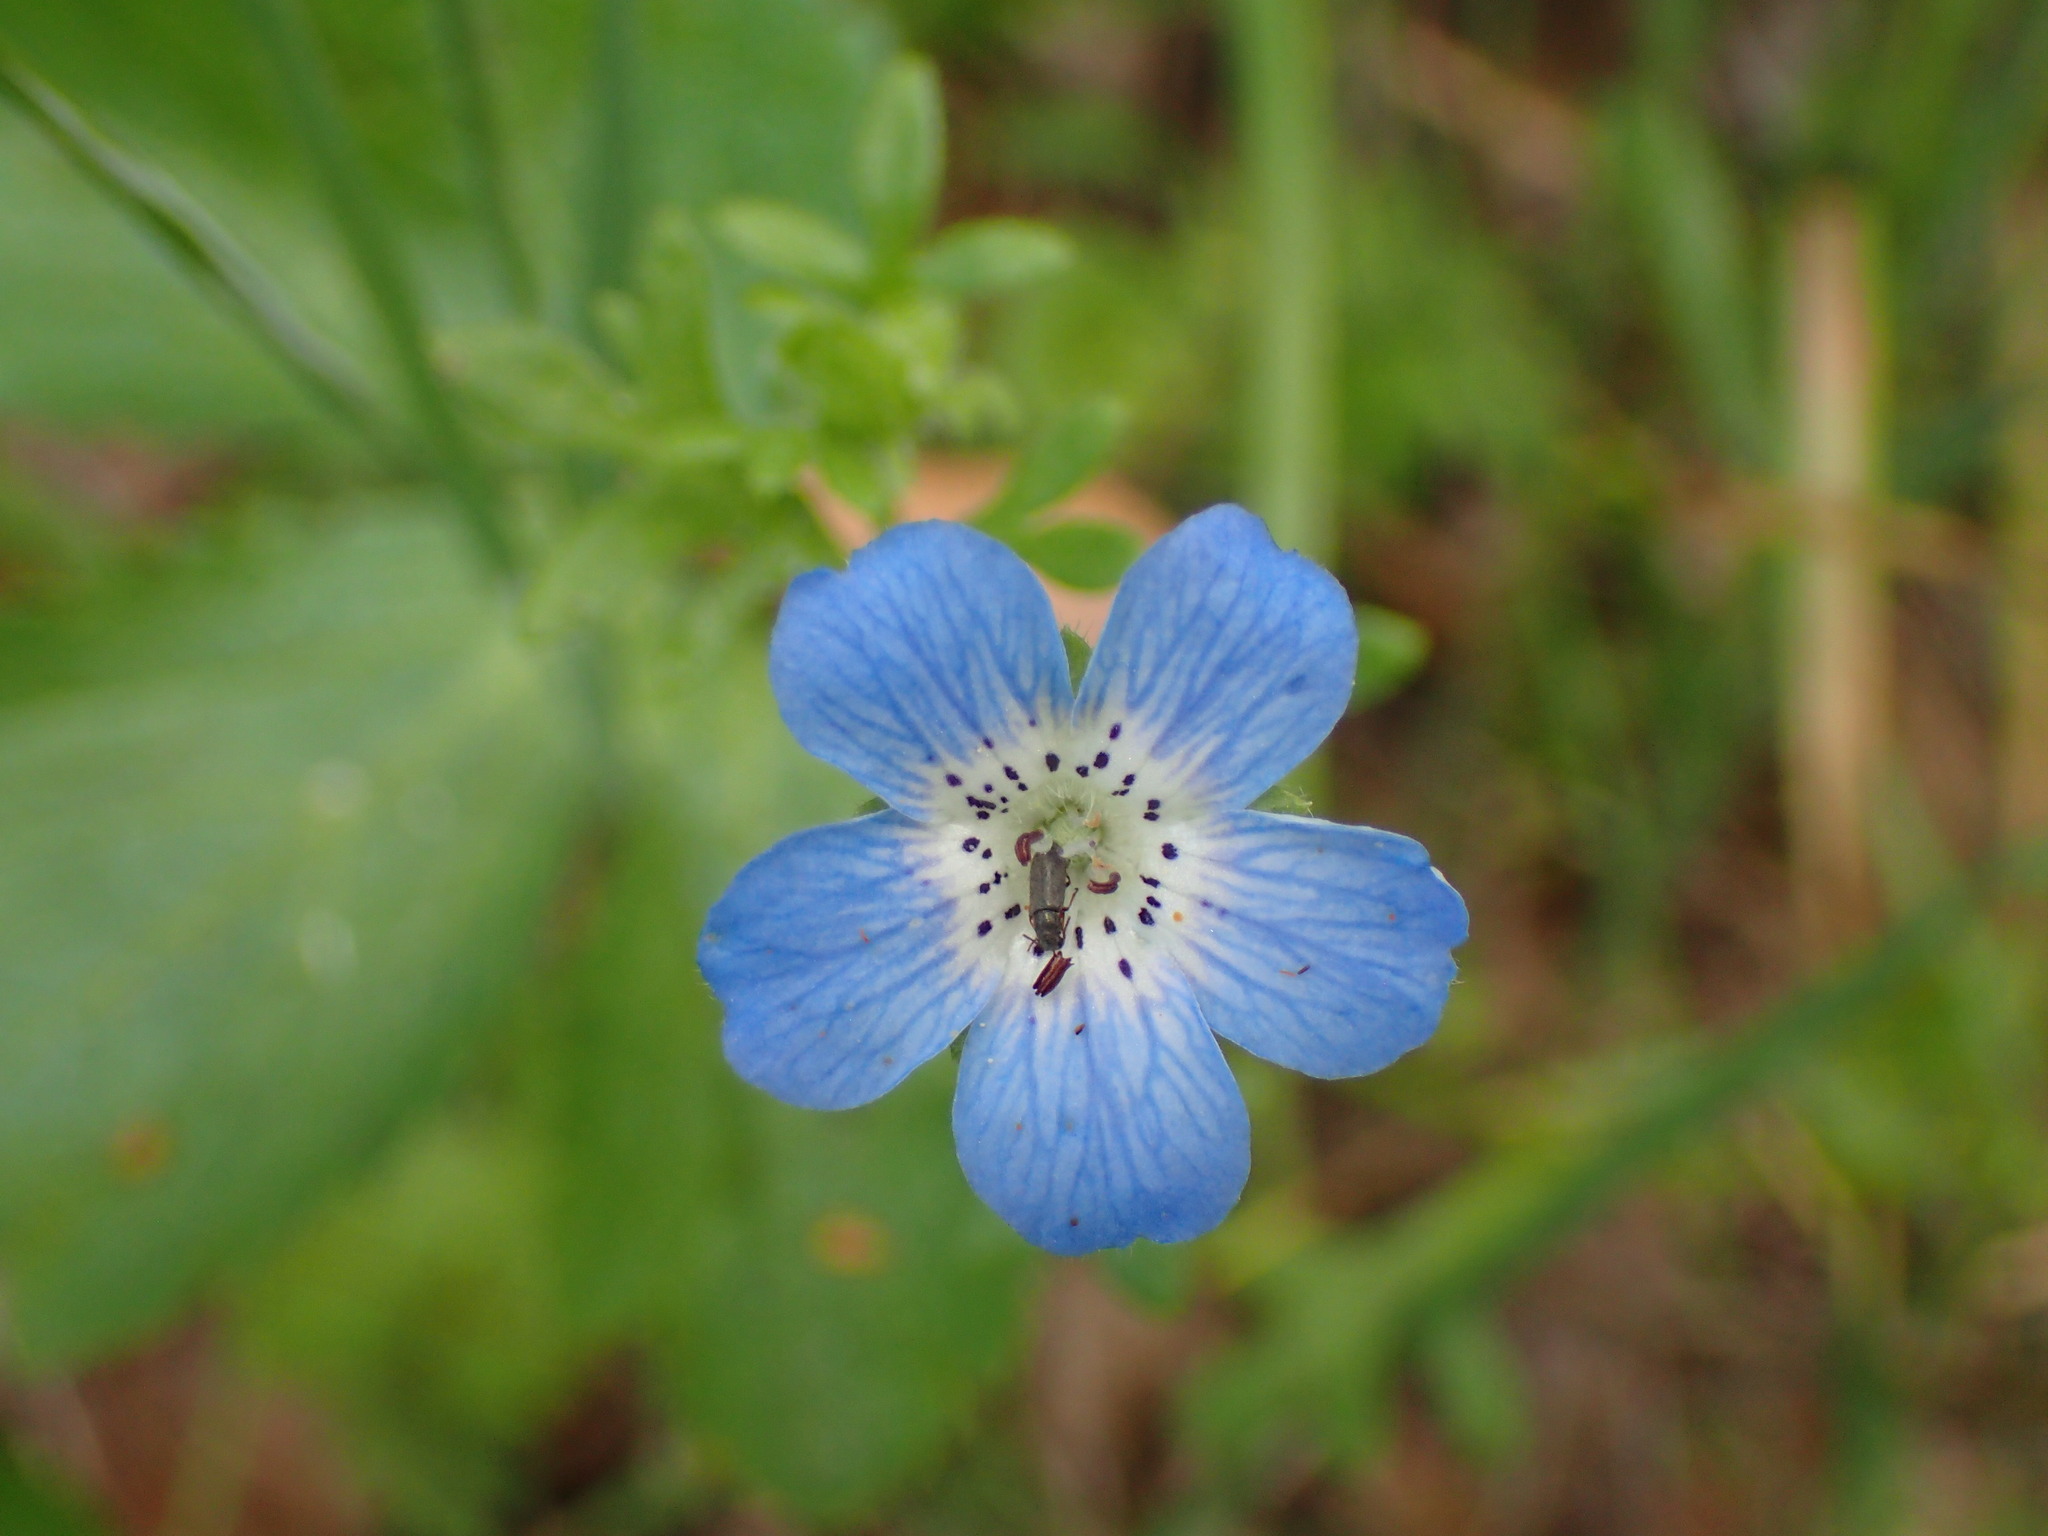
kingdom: Plantae
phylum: Tracheophyta
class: Magnoliopsida
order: Boraginales
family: Hydrophyllaceae
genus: Nemophila
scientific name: Nemophila menziesii
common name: Baby's-blue-eyes
